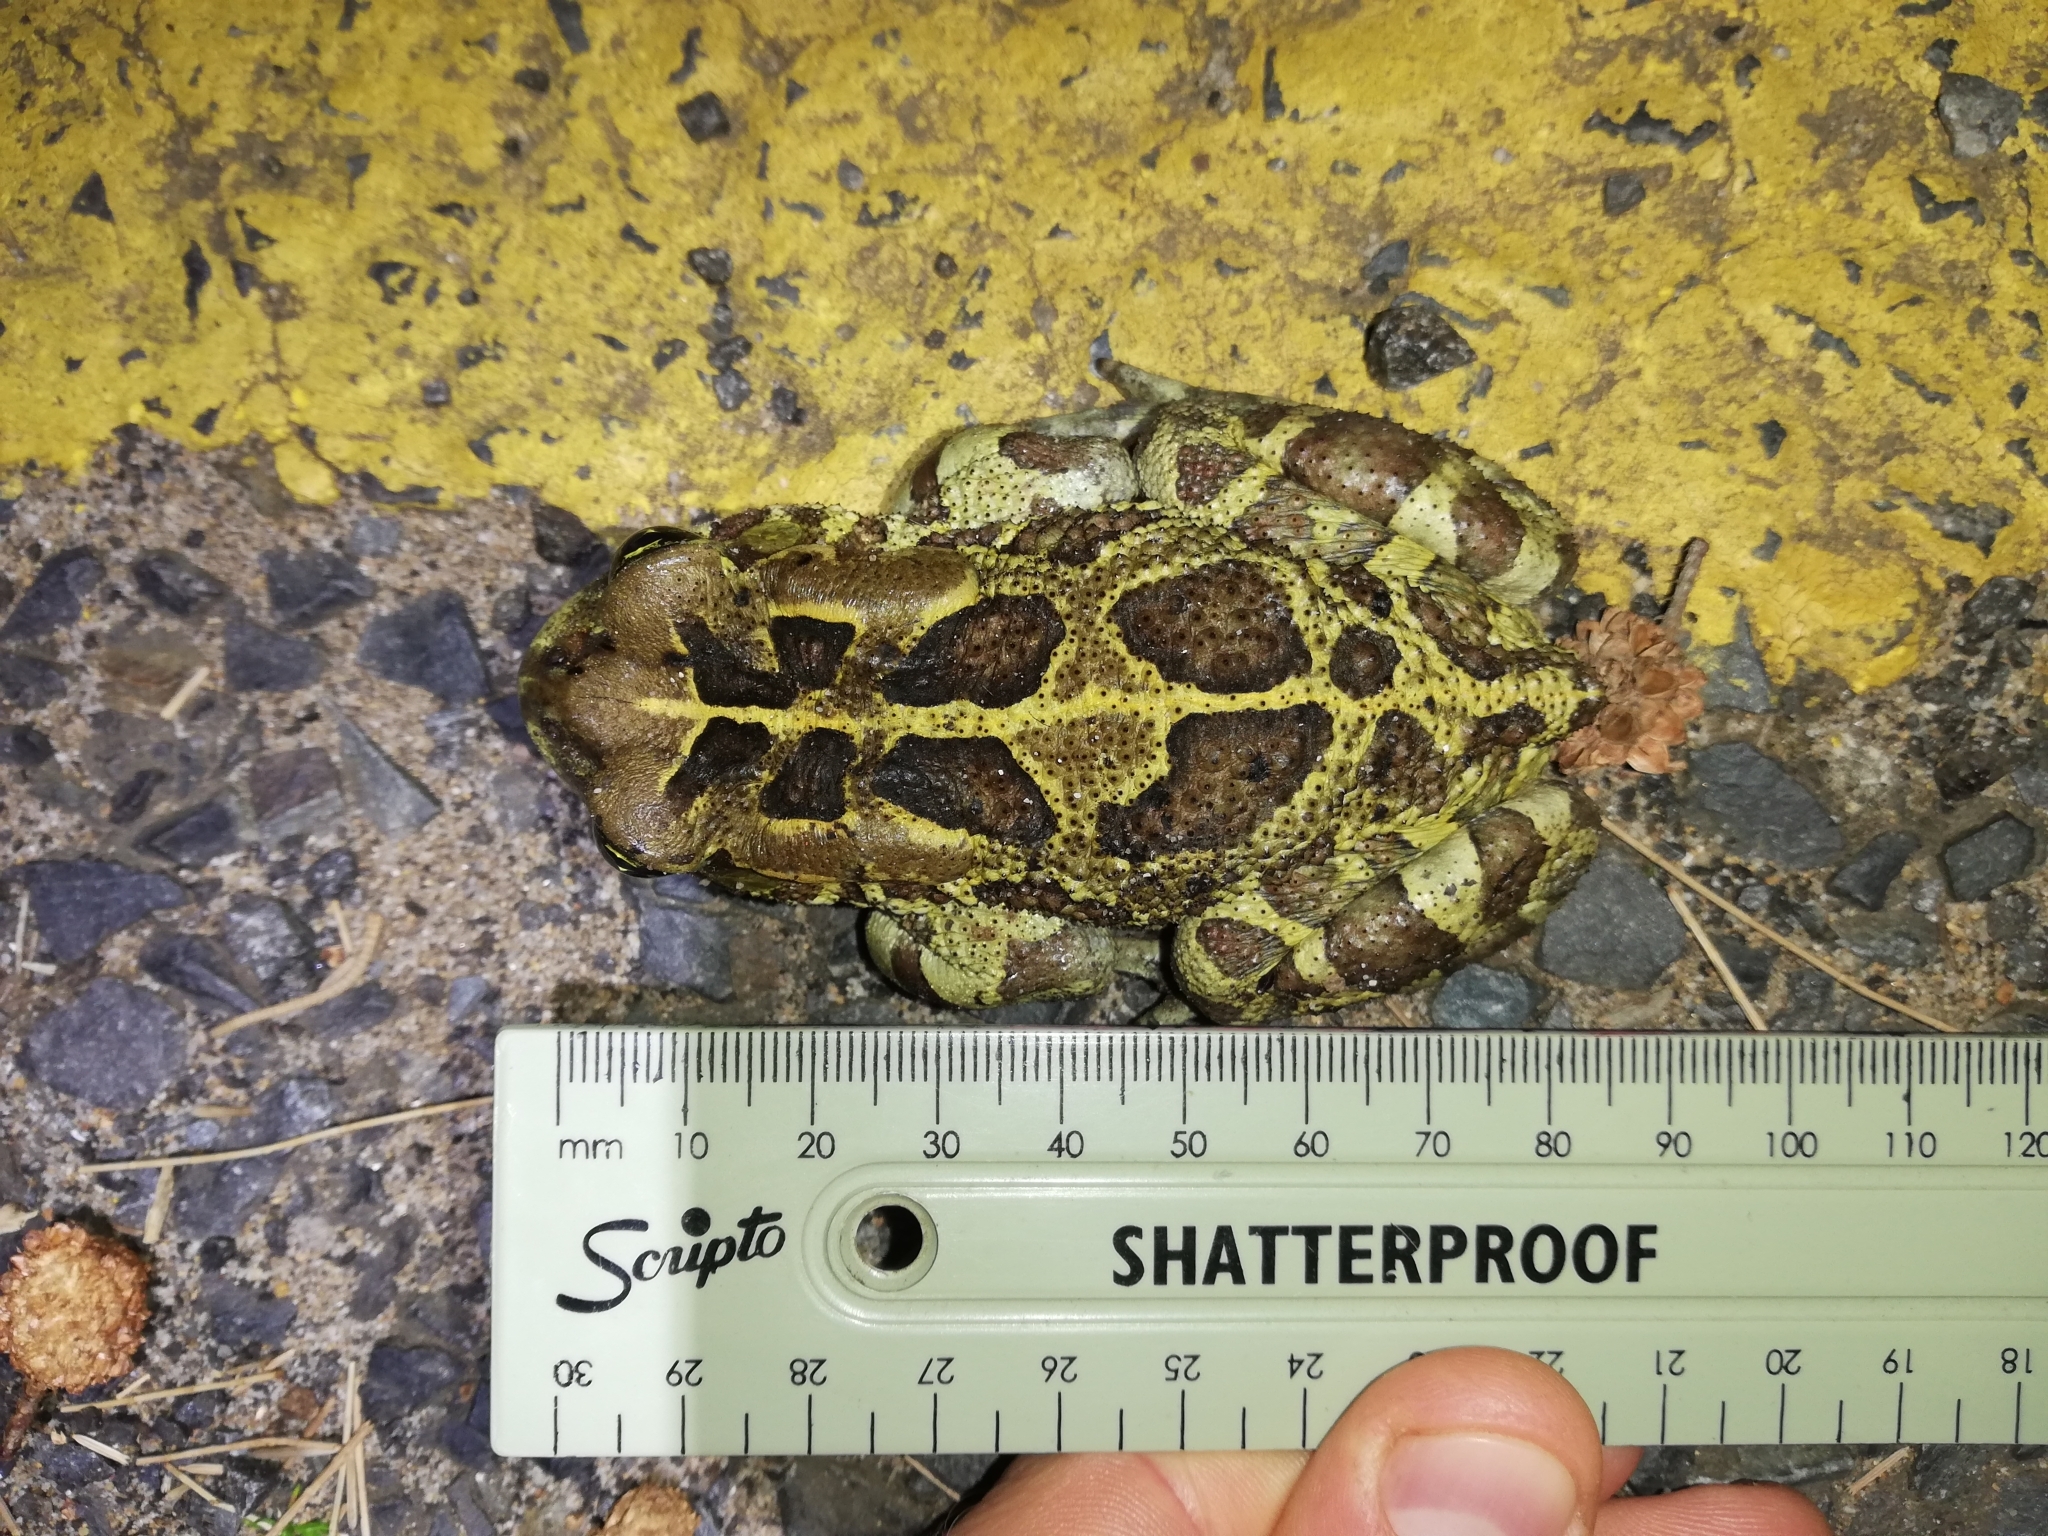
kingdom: Animalia
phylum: Chordata
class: Amphibia
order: Anura
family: Bufonidae
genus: Sclerophrys
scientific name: Sclerophrys pantherina
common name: Panther toad
